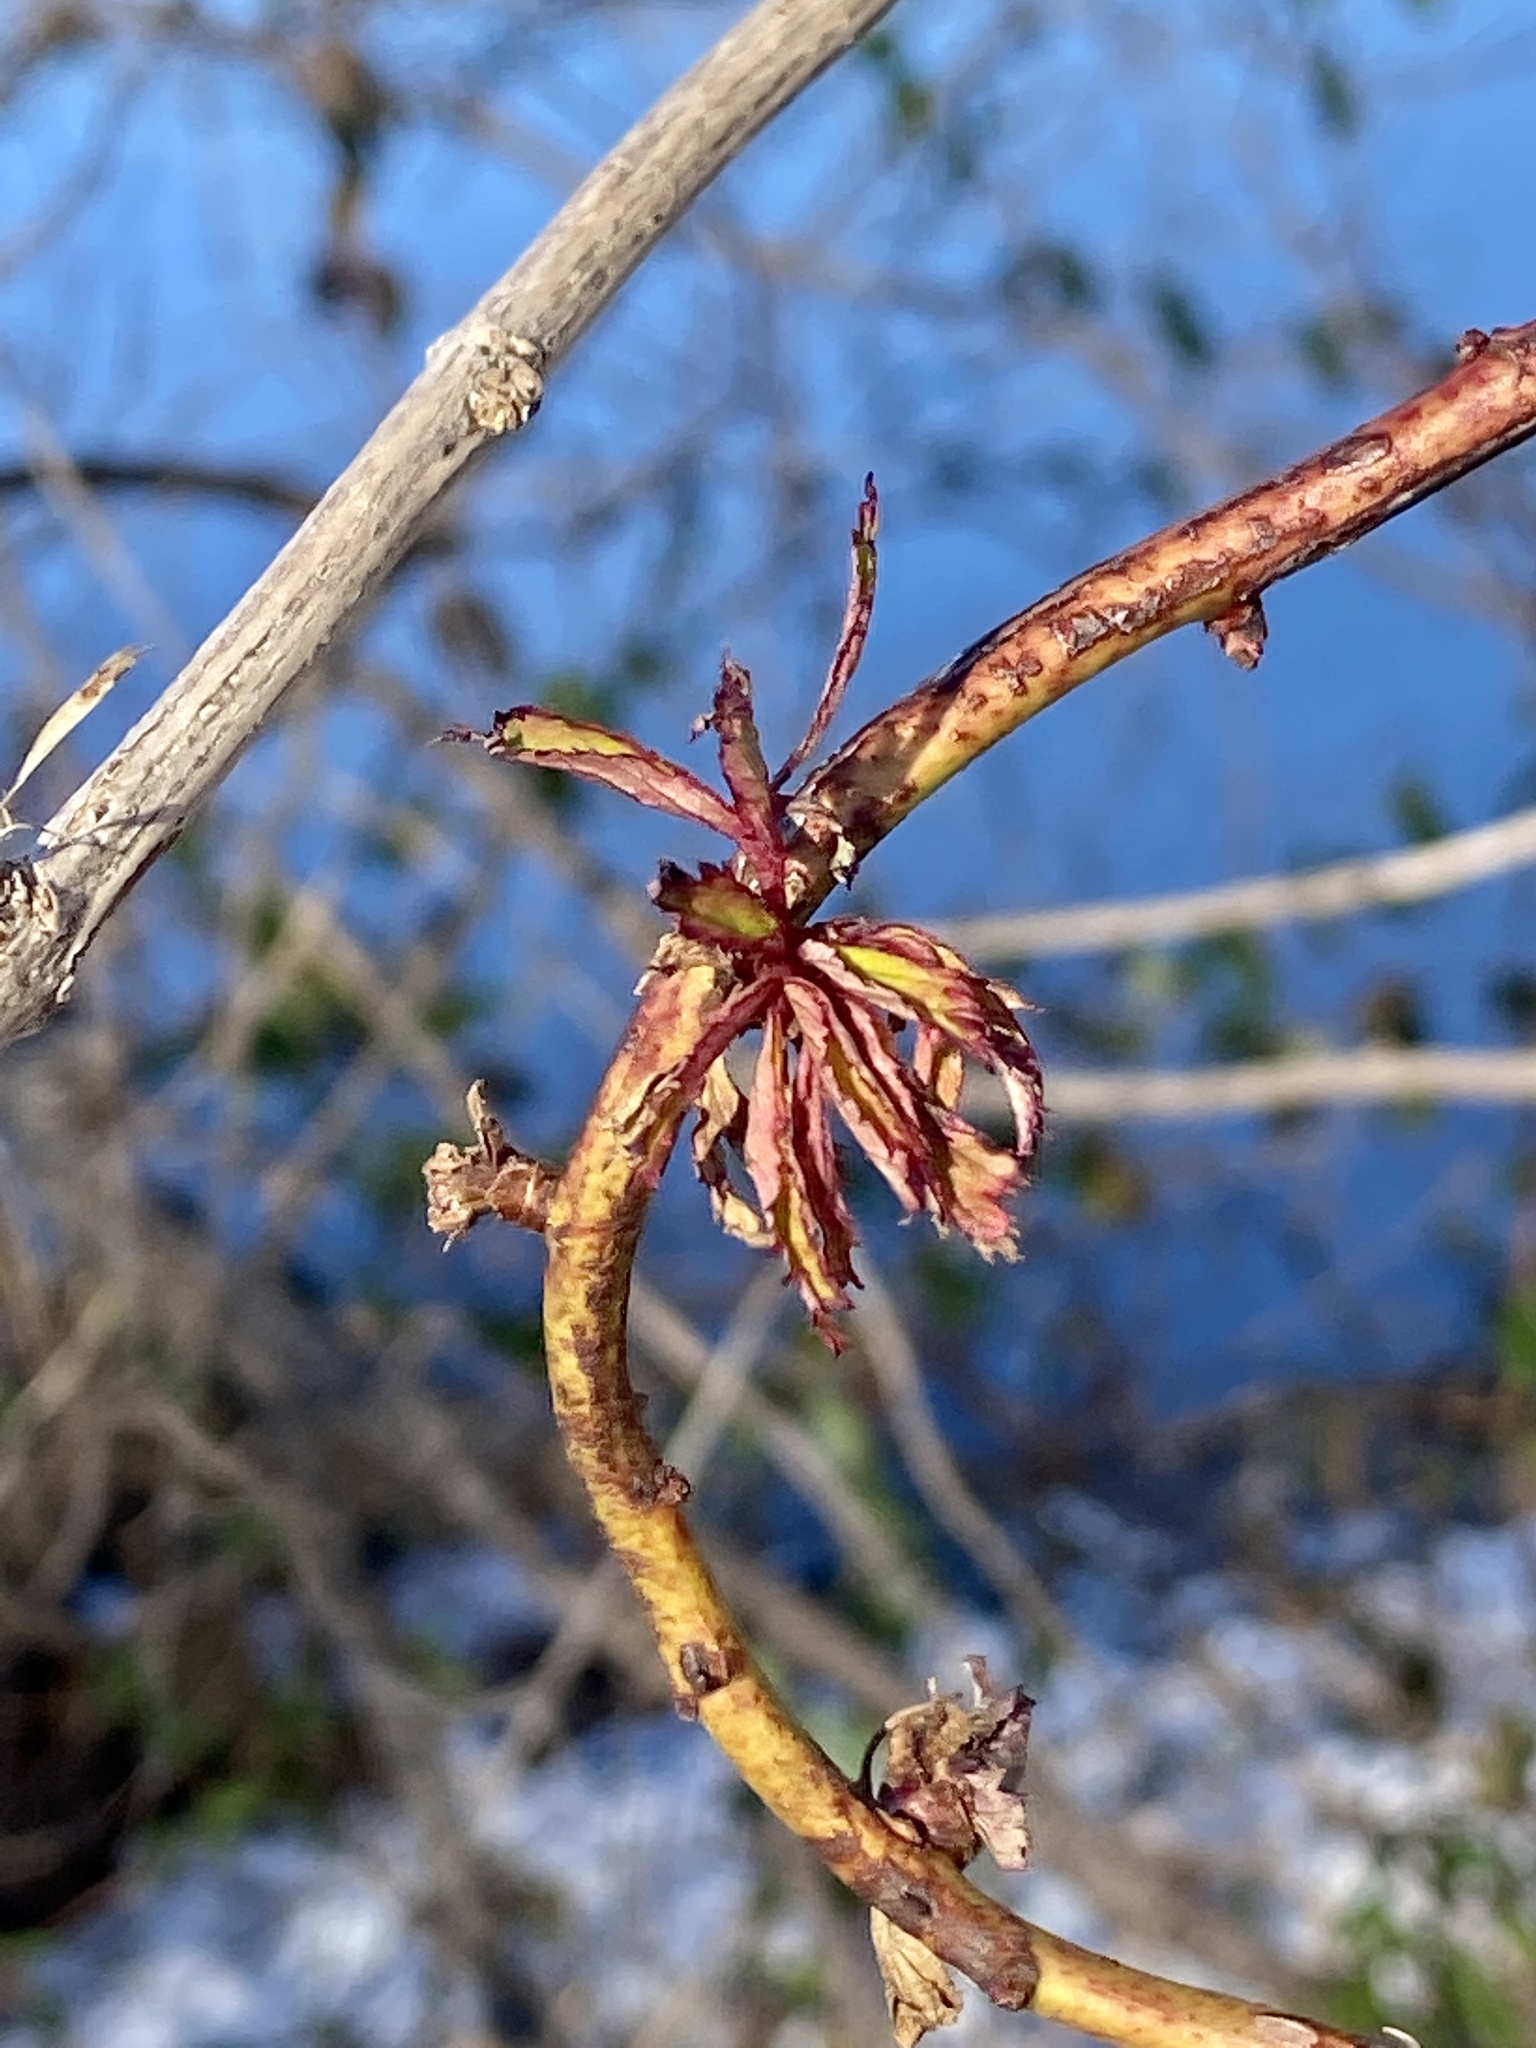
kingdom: Viruses
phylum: Negarnaviricota
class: Ellioviricetes
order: Bunyavirales
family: Fimoviridae
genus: Emaravirus
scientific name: Emaravirus rosae
